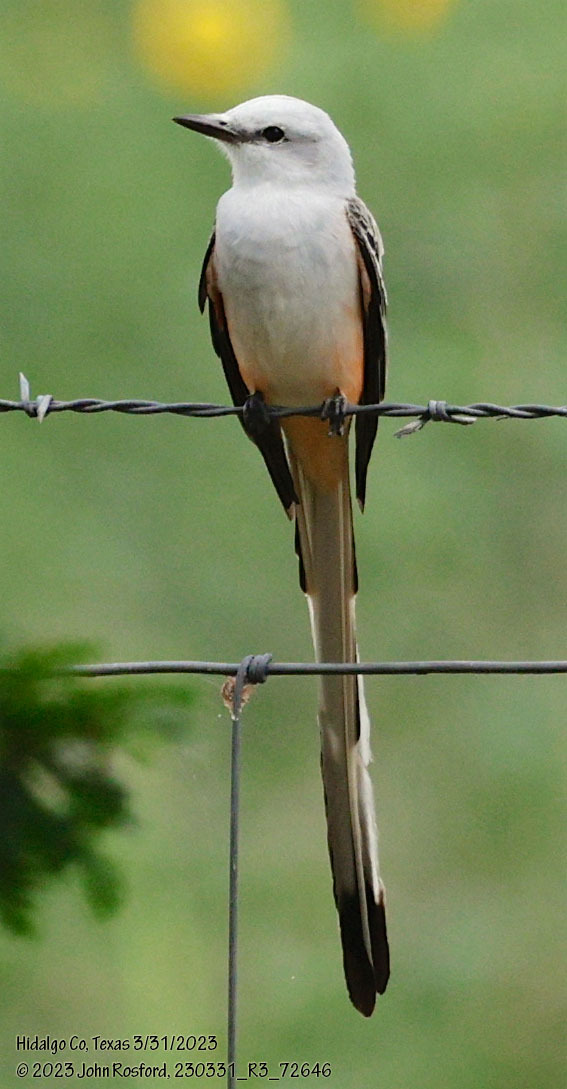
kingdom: Animalia
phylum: Chordata
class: Aves
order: Passeriformes
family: Tyrannidae
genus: Tyrannus
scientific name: Tyrannus forficatus
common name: Scissor-tailed flycatcher
